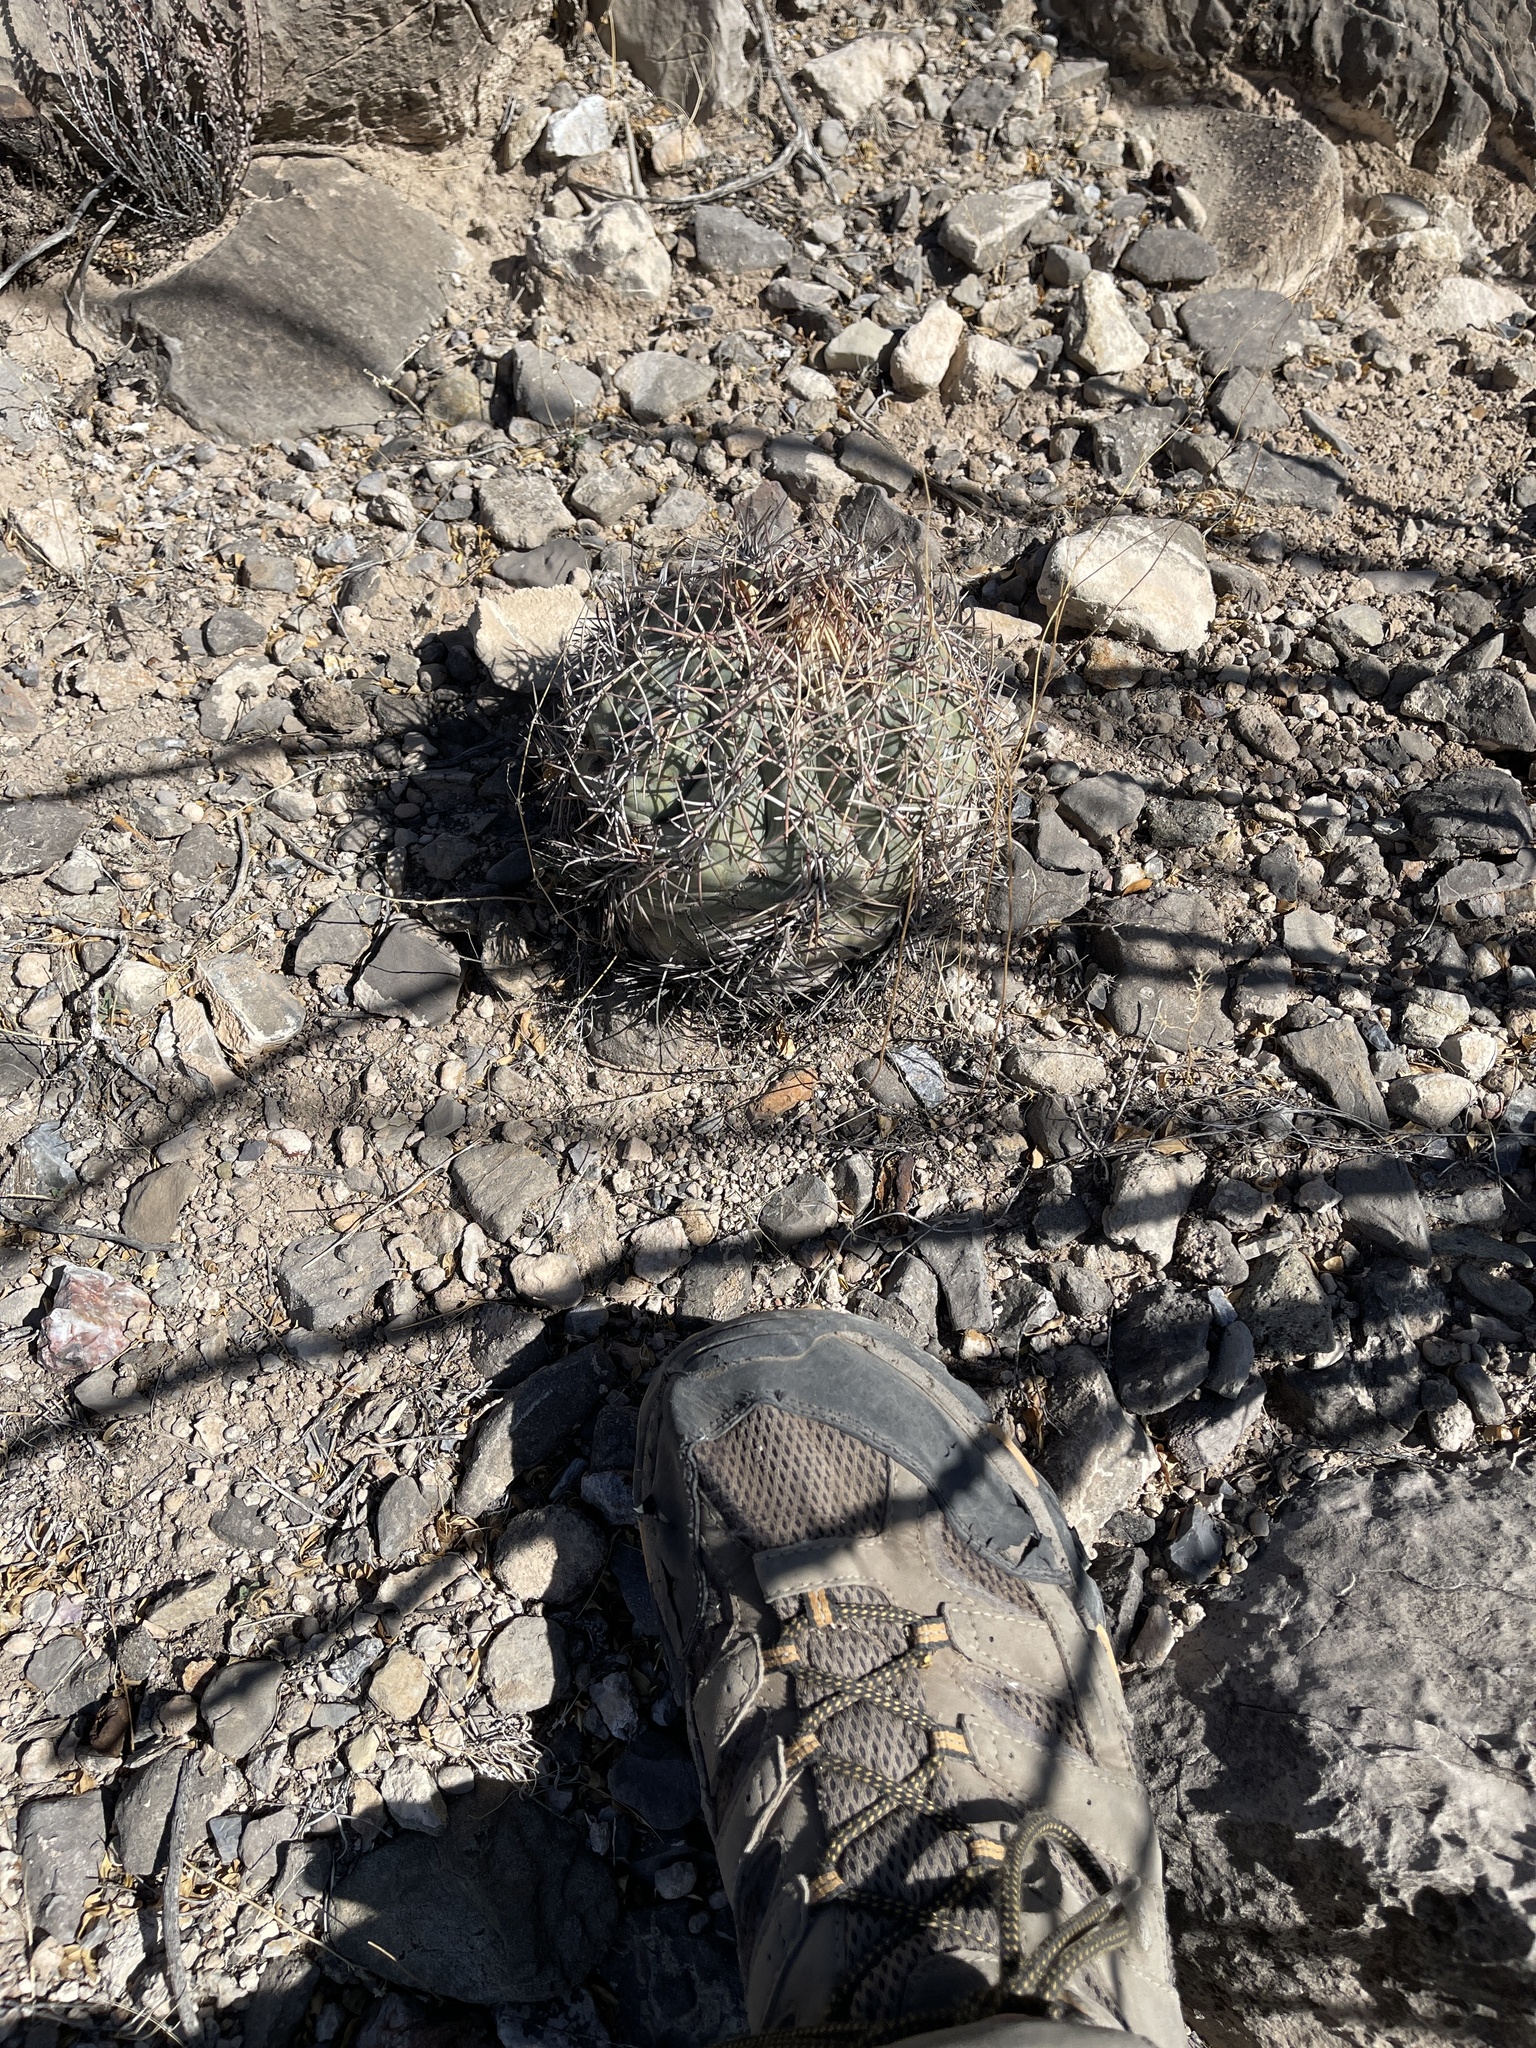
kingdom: Plantae
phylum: Tracheophyta
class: Magnoliopsida
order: Caryophyllales
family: Cactaceae
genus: Echinocactus
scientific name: Echinocactus horizonthalonius
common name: Devilshead
